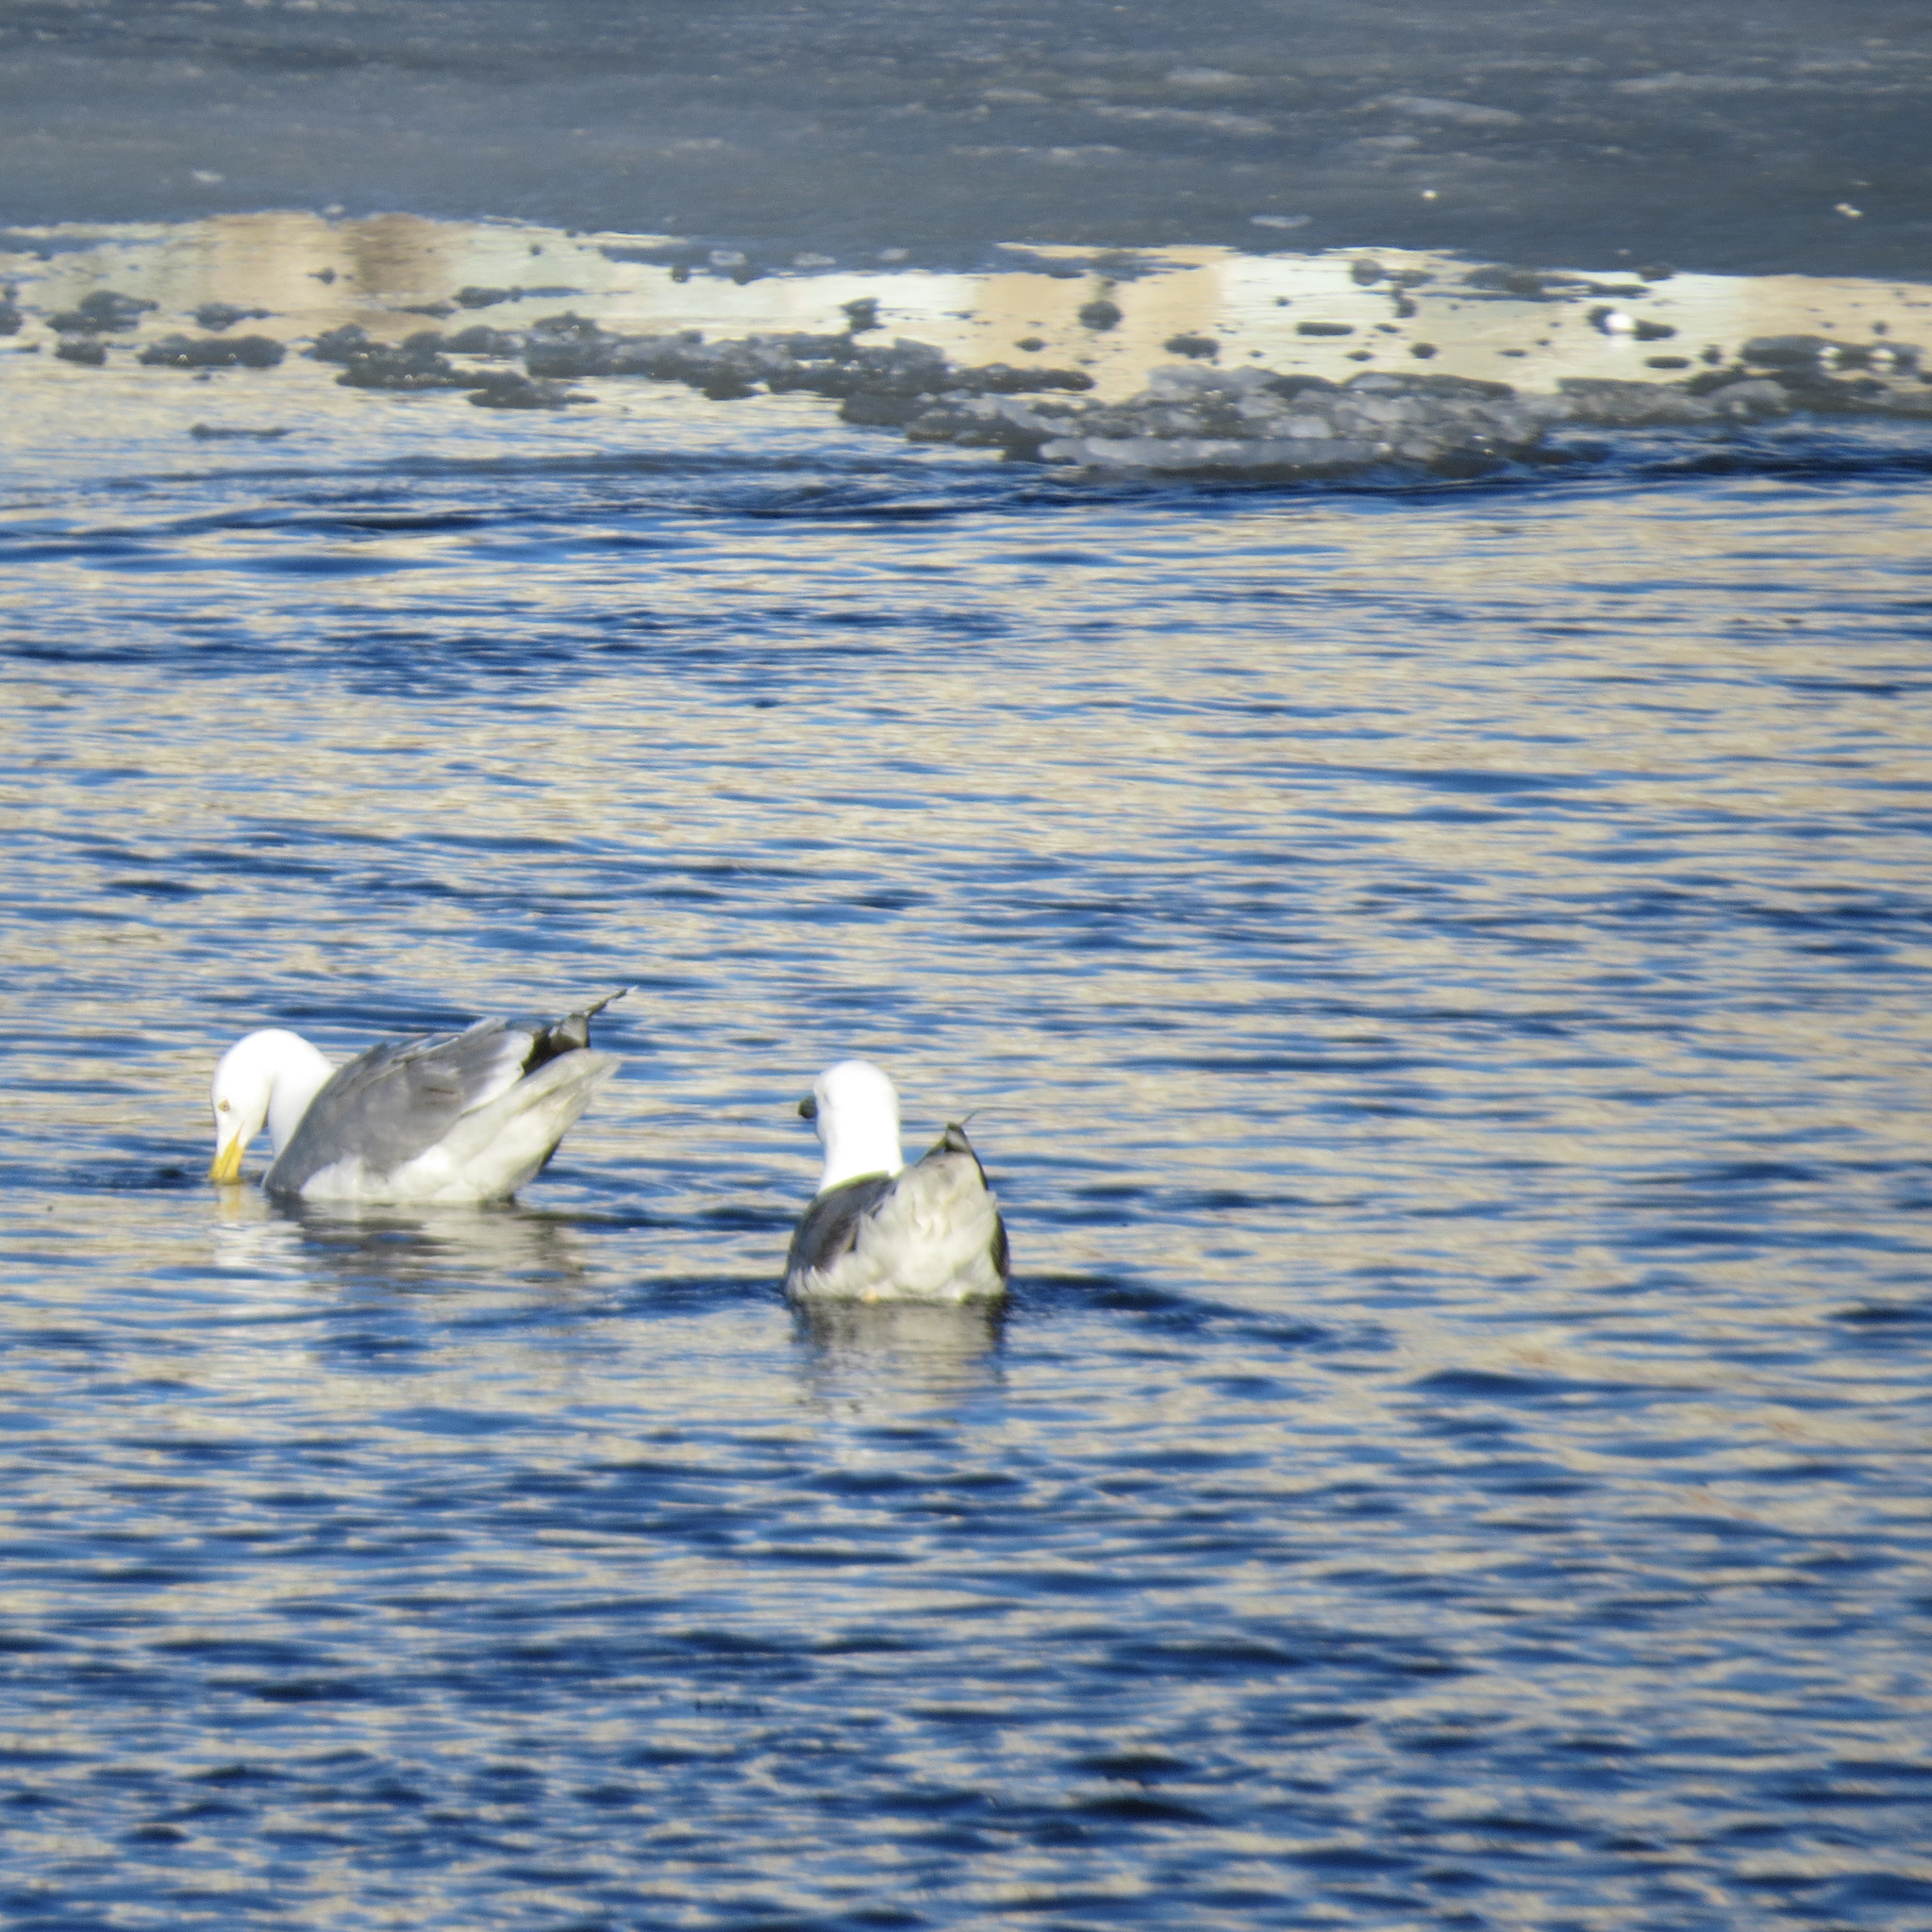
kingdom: Animalia
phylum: Chordata
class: Aves
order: Charadriiformes
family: Laridae
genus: Larus
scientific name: Larus argentatus
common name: Herring gull
